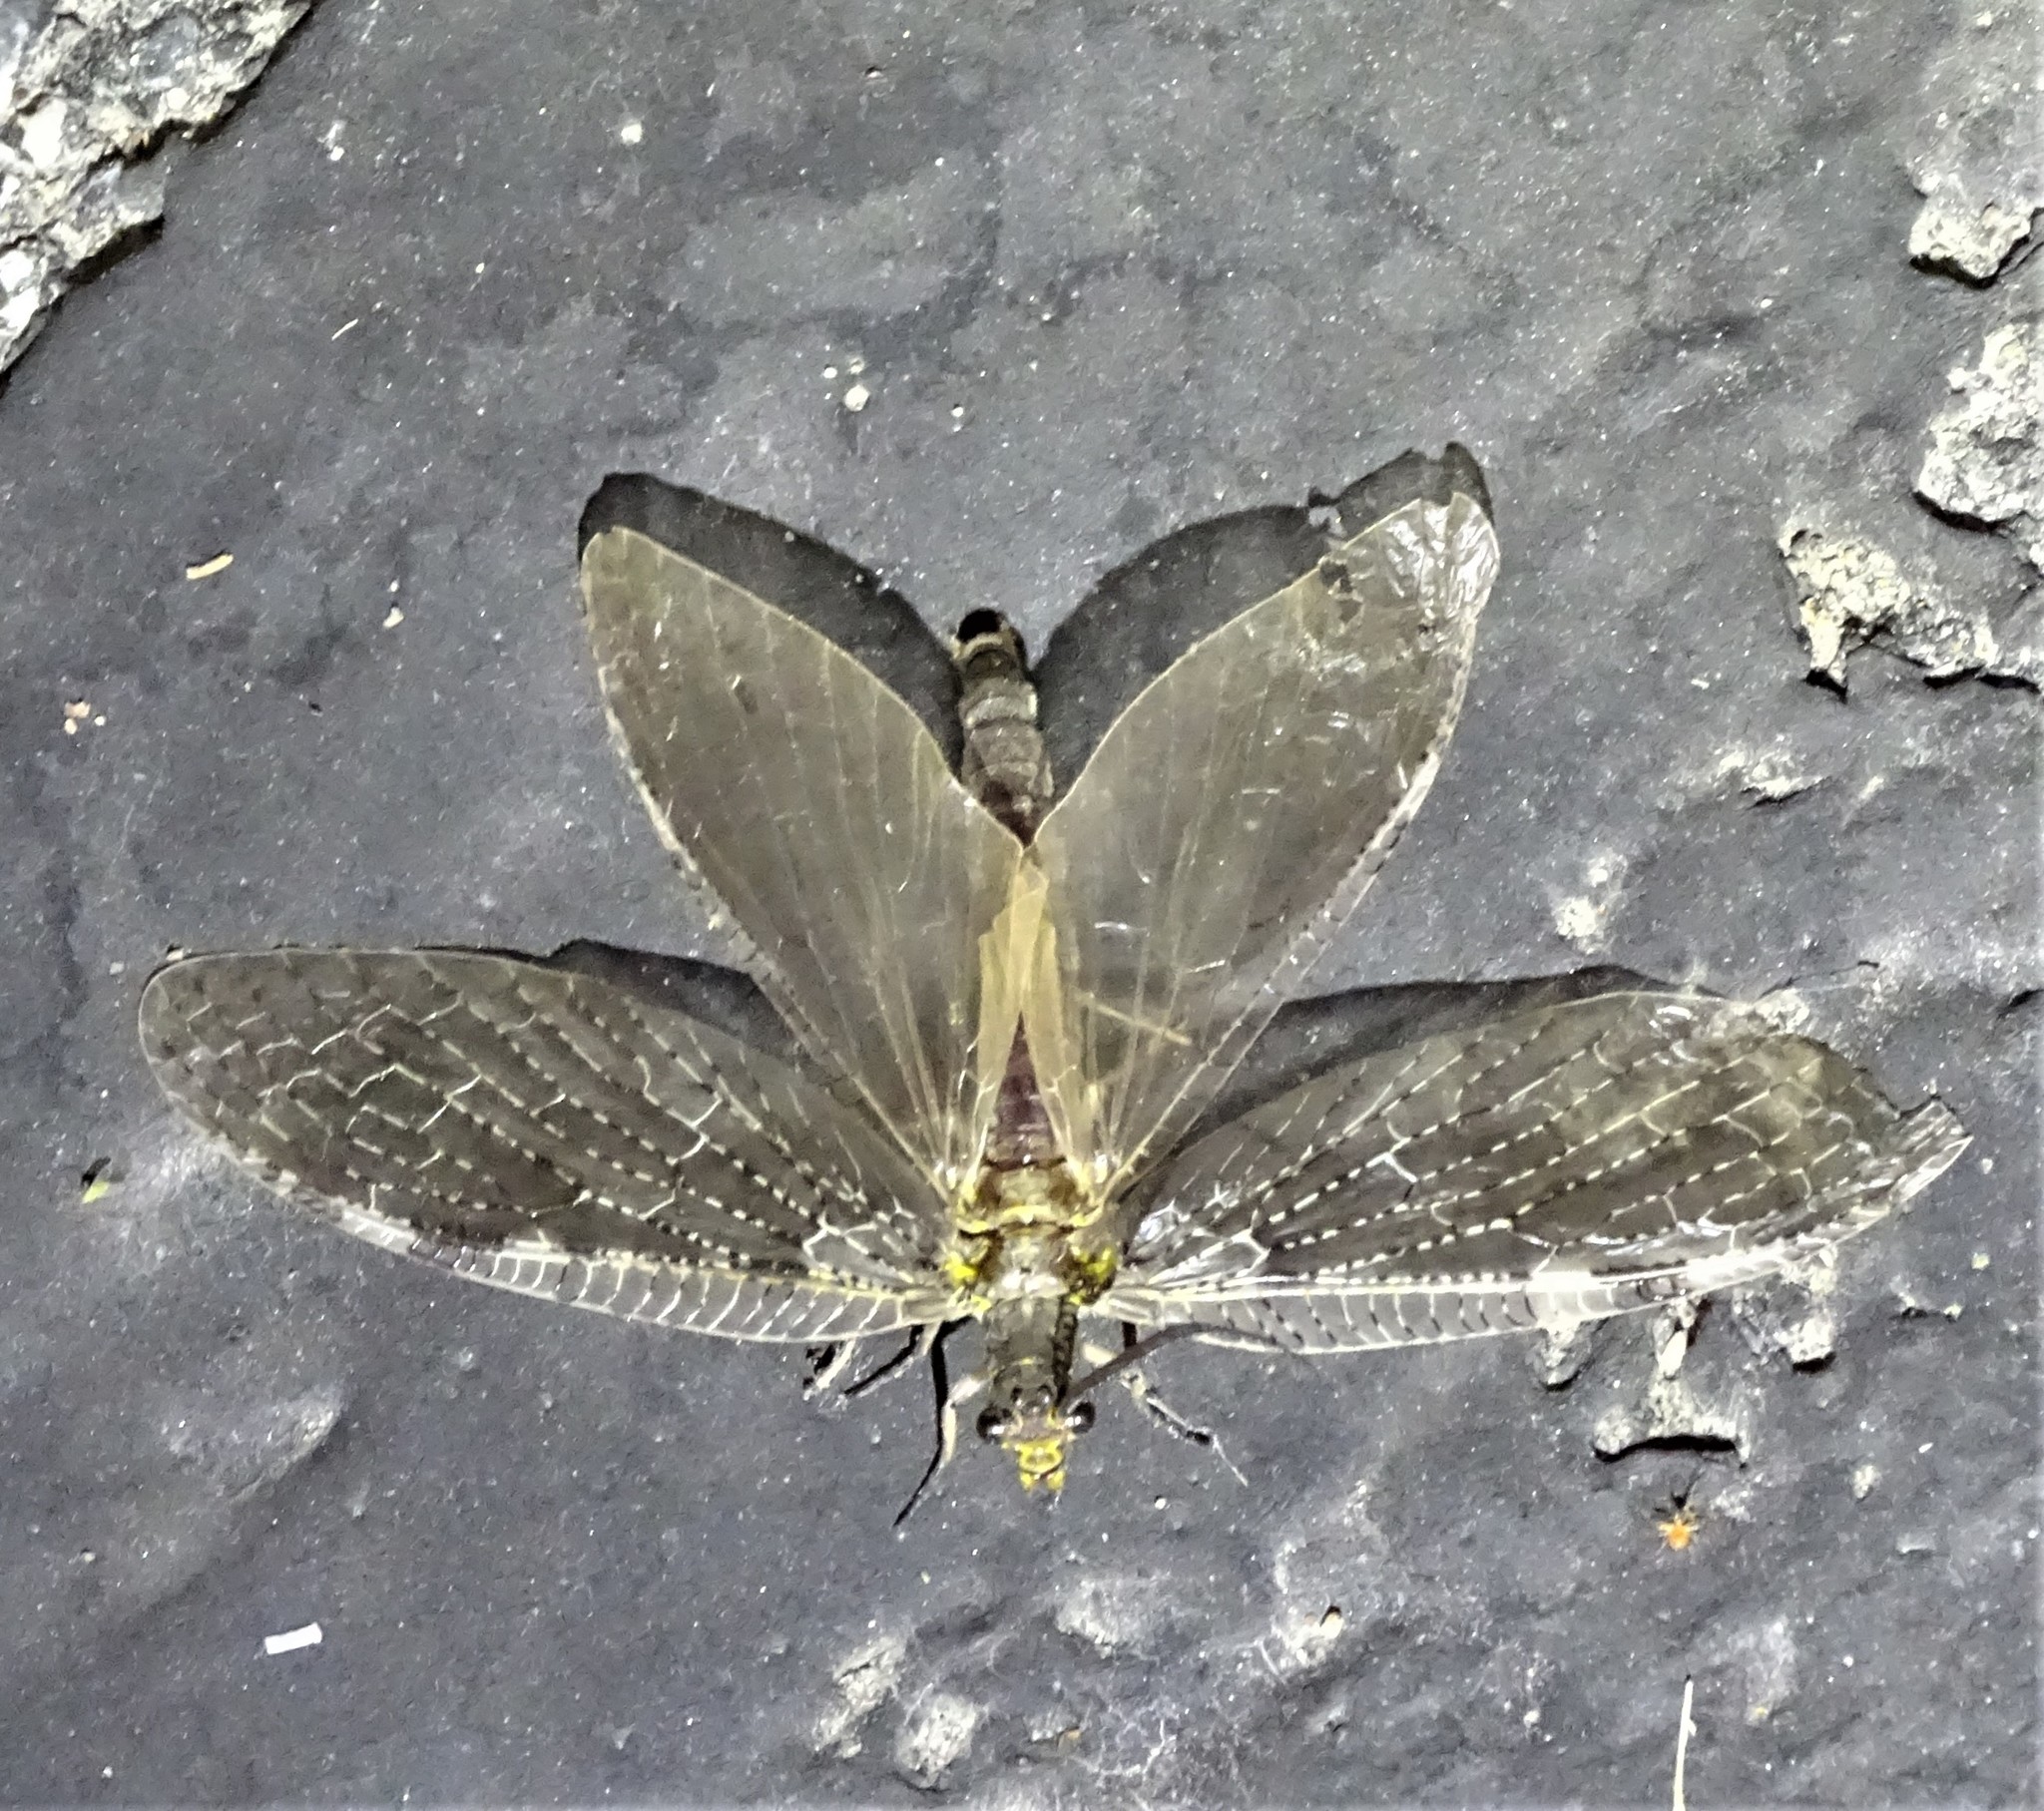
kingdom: Animalia
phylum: Arthropoda
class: Insecta
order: Megaloptera
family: Corydalidae
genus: Chauliodes
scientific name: Chauliodes pectinicornis
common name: Summer fishfly
